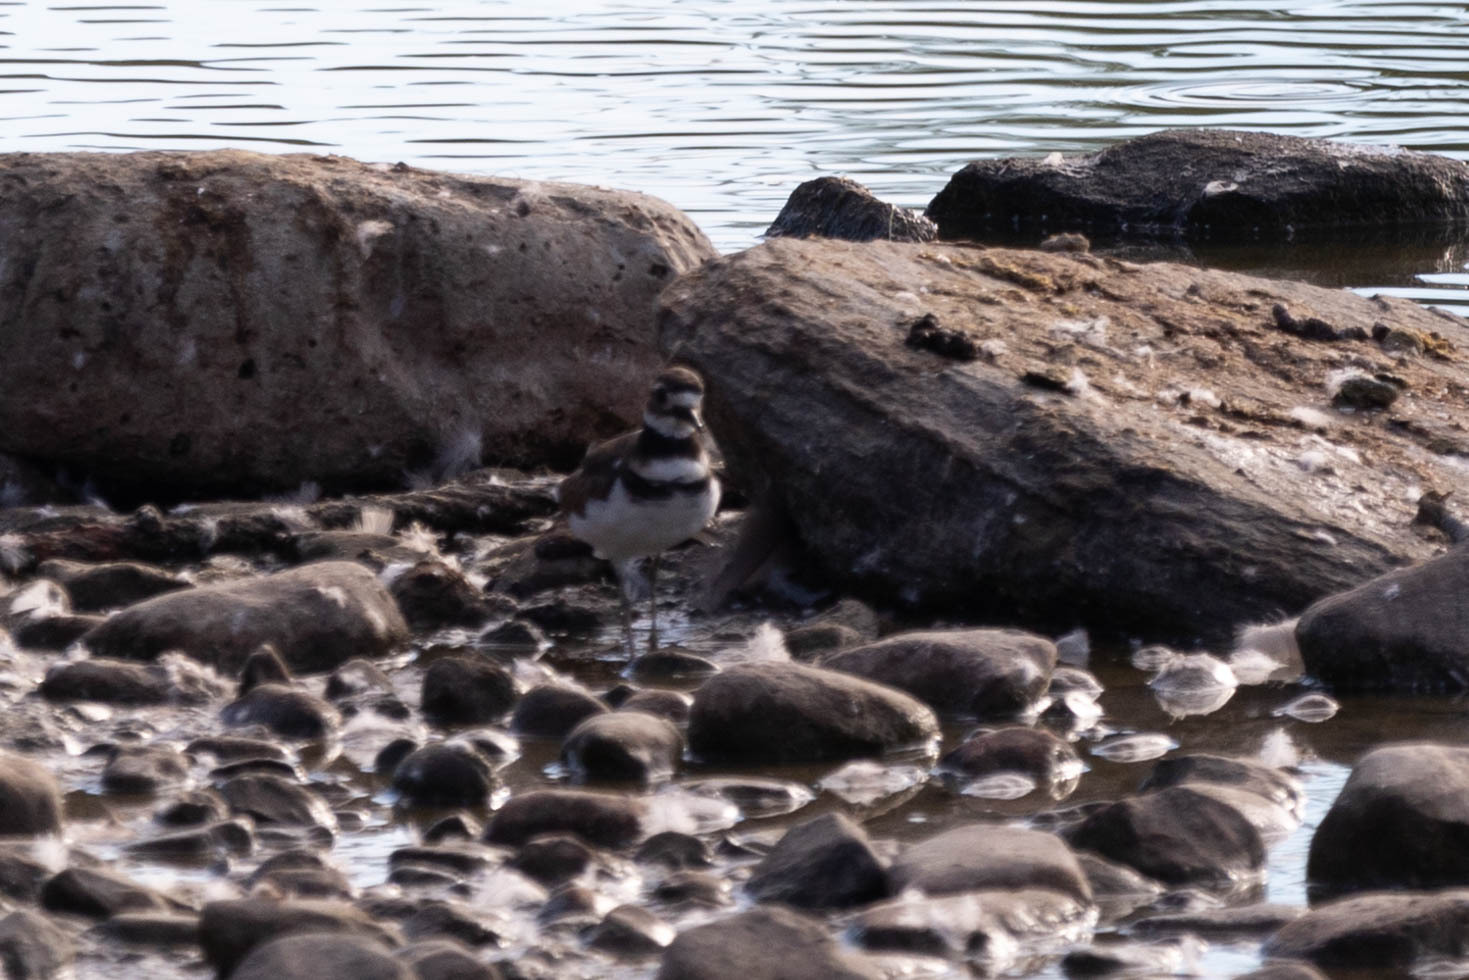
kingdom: Animalia
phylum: Chordata
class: Aves
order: Charadriiformes
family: Charadriidae
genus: Charadrius
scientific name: Charadrius vociferus
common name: Killdeer
